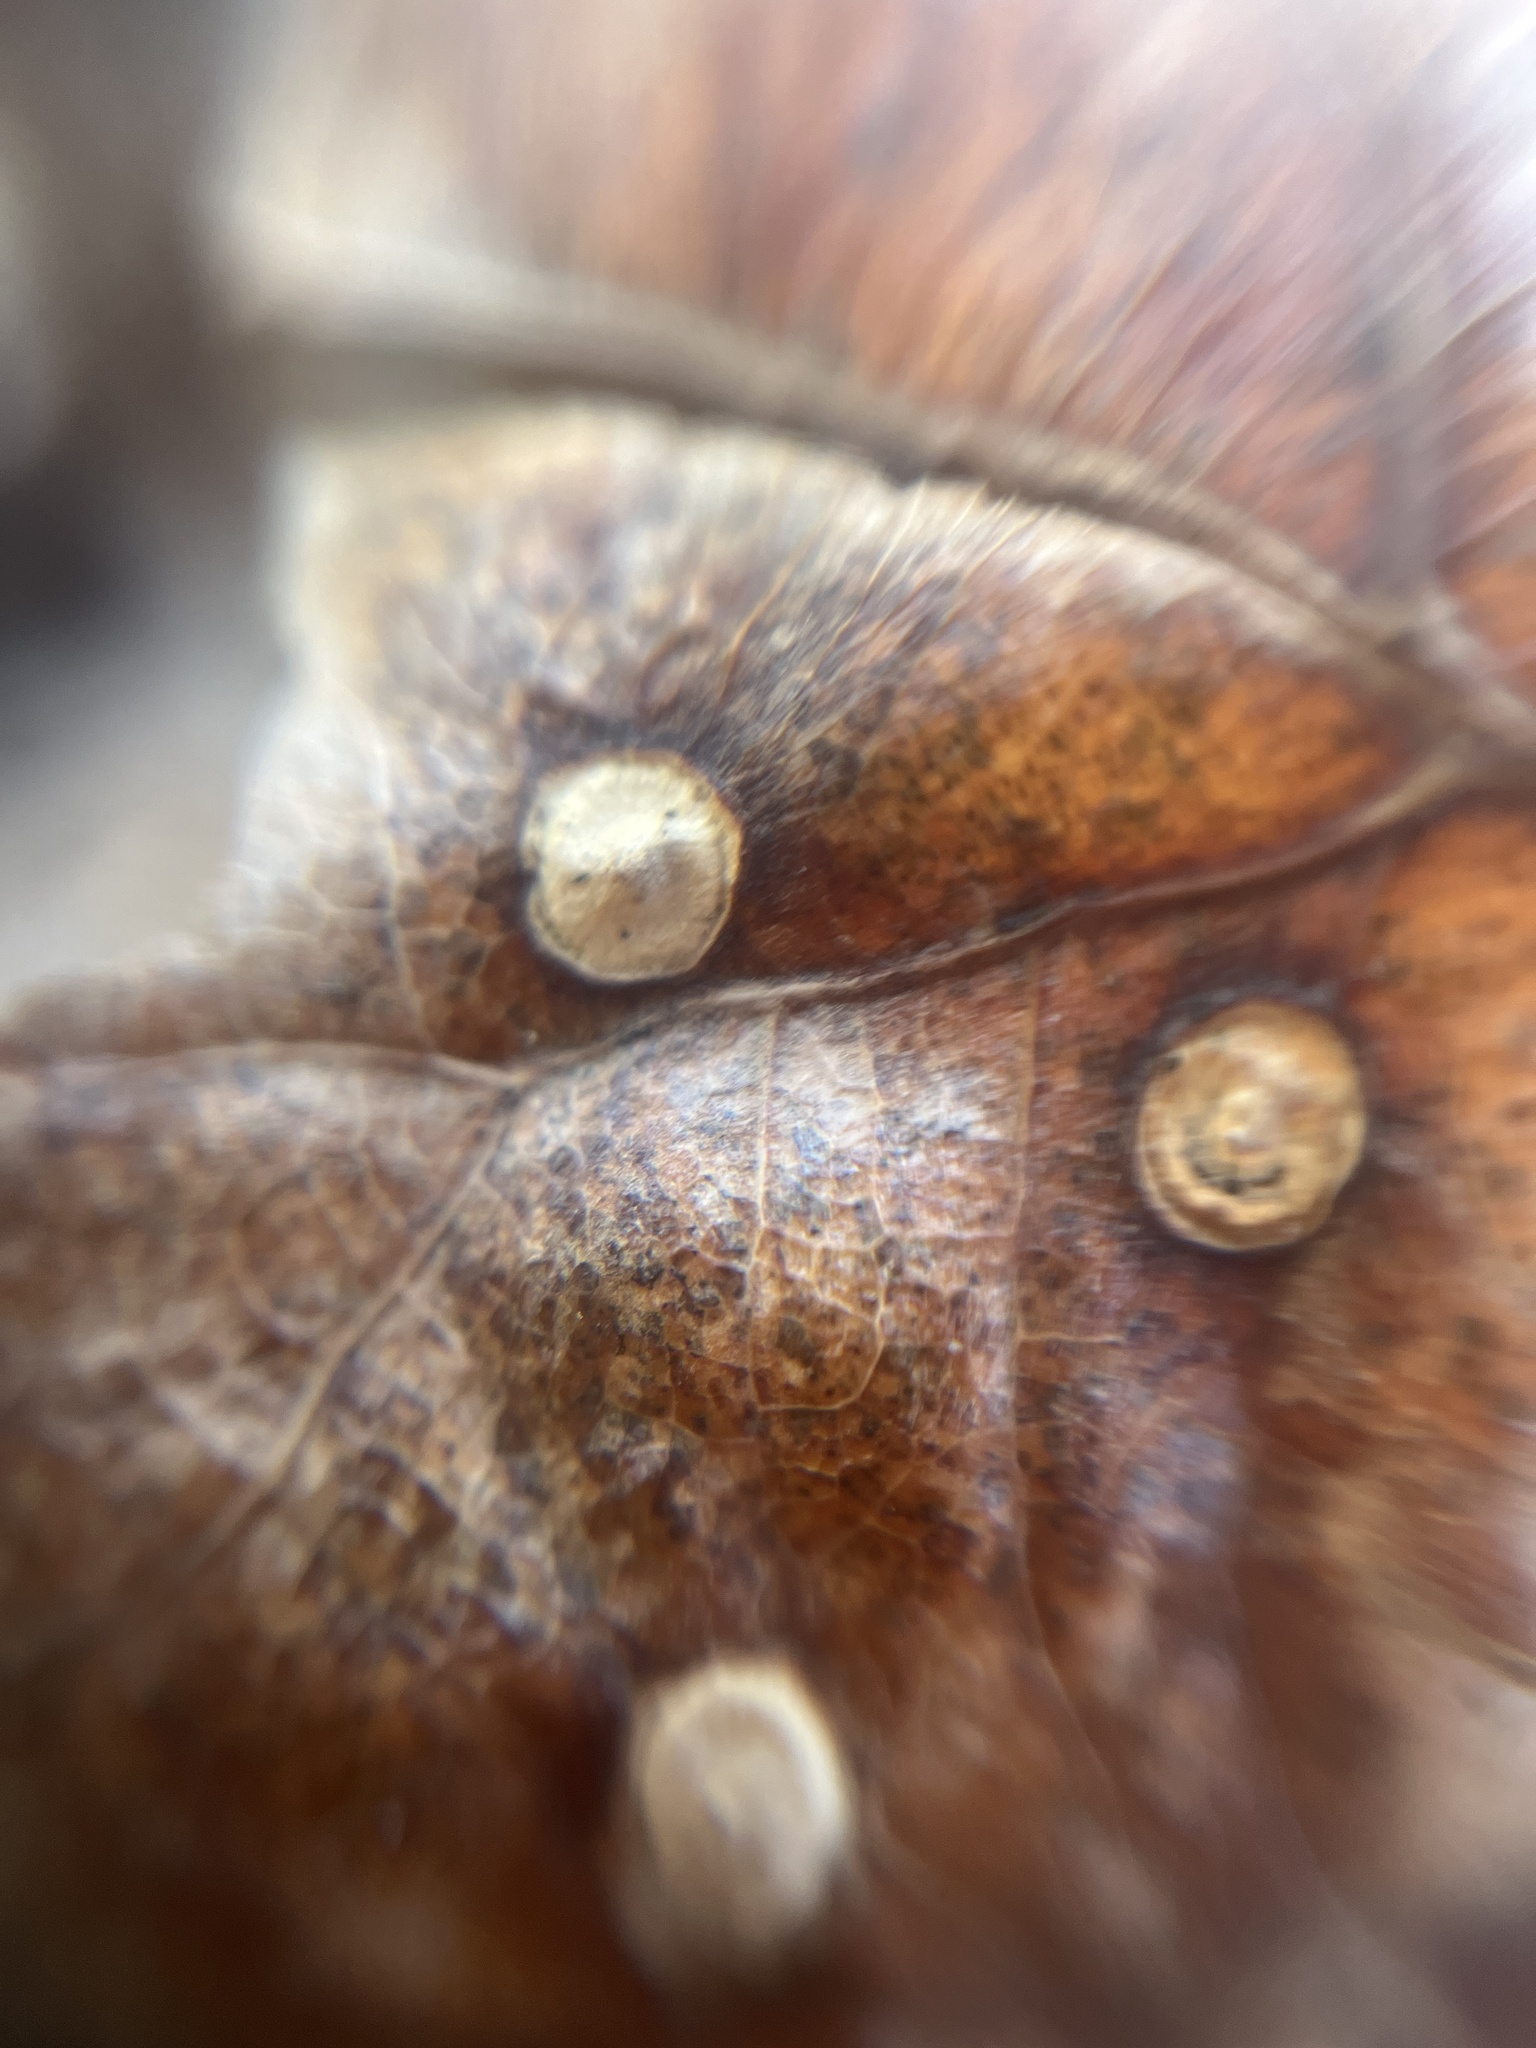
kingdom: Animalia
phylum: Arthropoda
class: Insecta
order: Hymenoptera
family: Cynipidae
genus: Neuroterus
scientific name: Neuroterus numismalis
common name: Silk-button spangle gall
